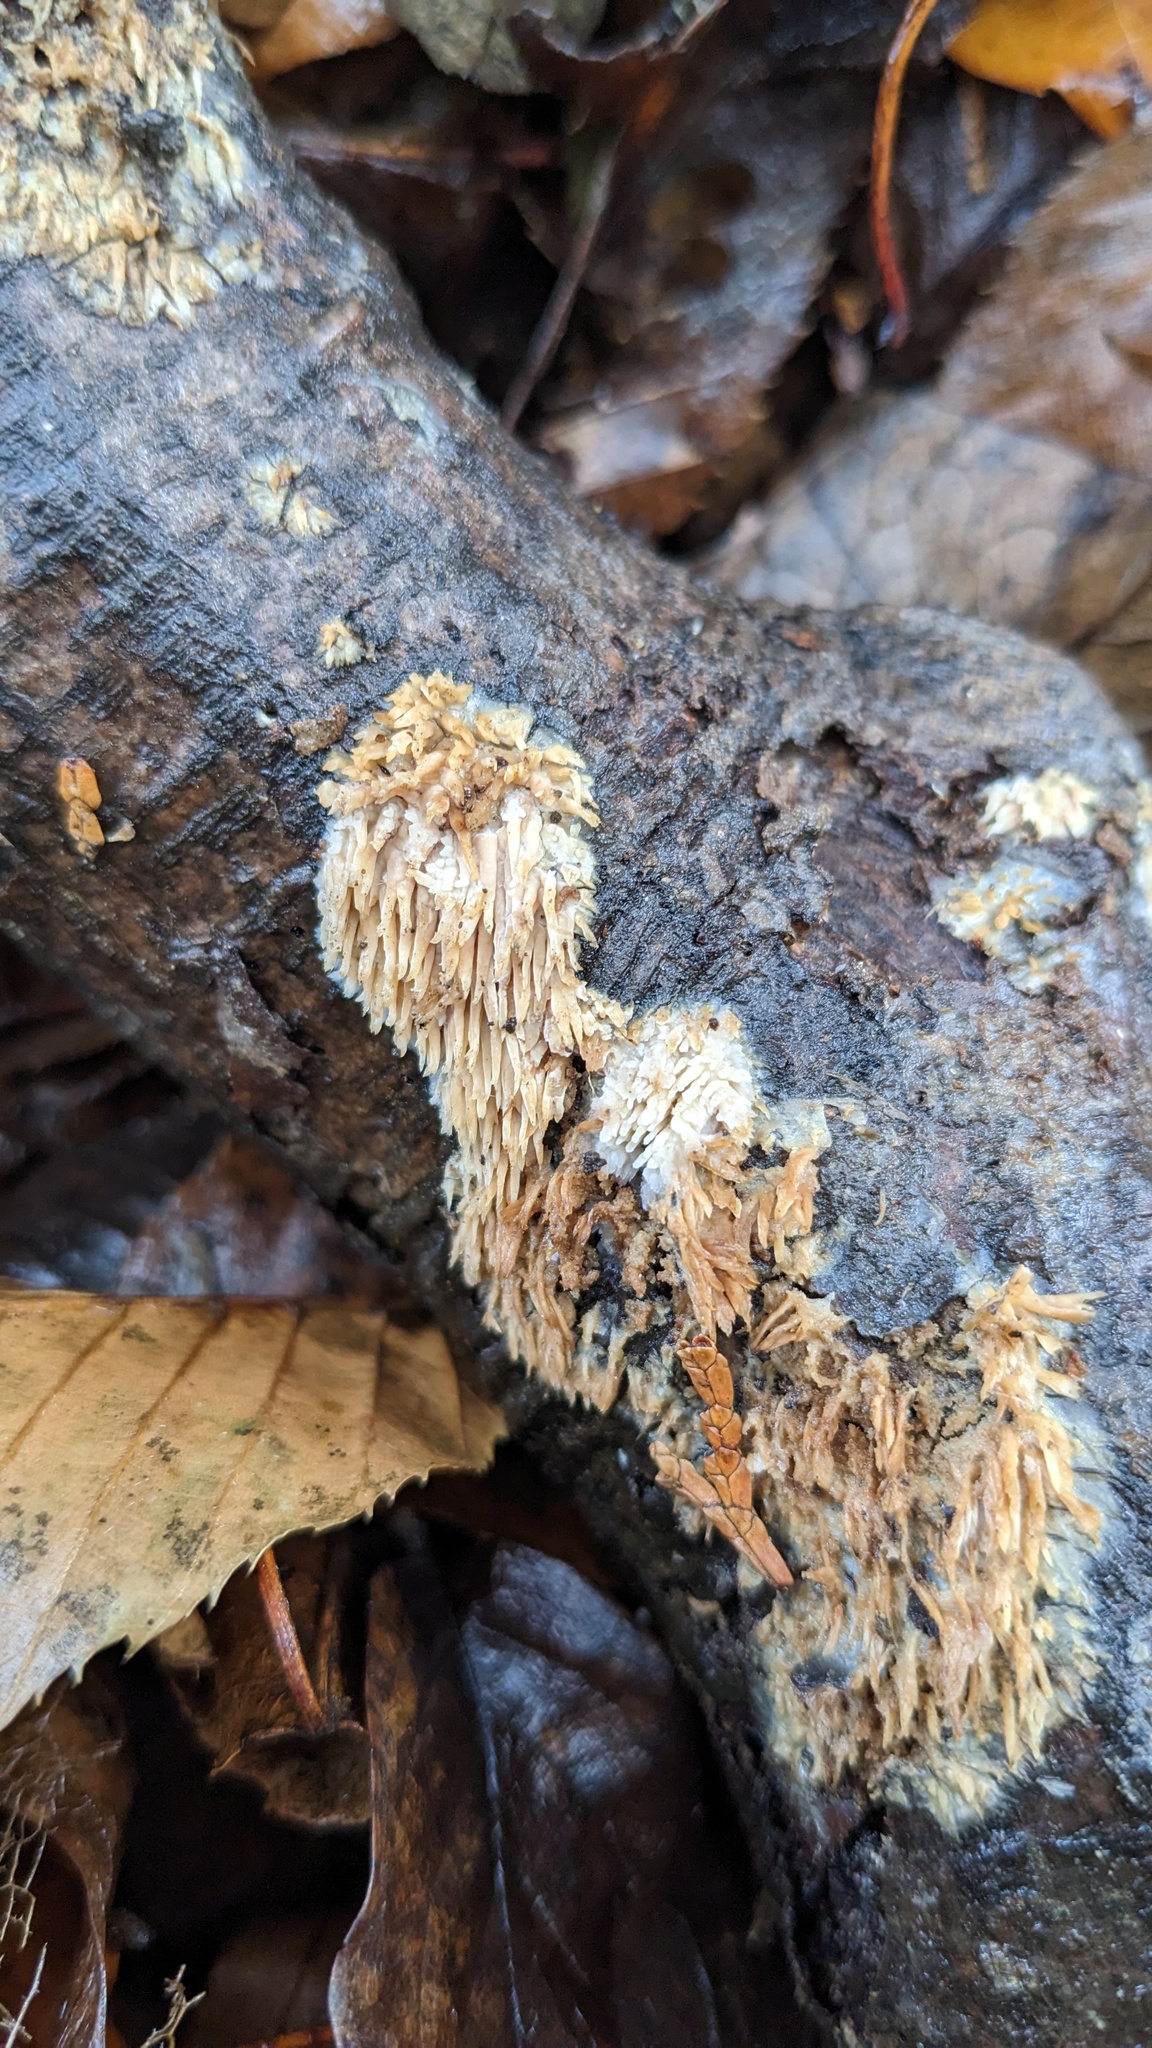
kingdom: Fungi
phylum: Basidiomycota
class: Agaricomycetes
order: Agaricales
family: Radulomycetaceae
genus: Radulomyces
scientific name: Radulomyces copelandii
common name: Asian beauty
